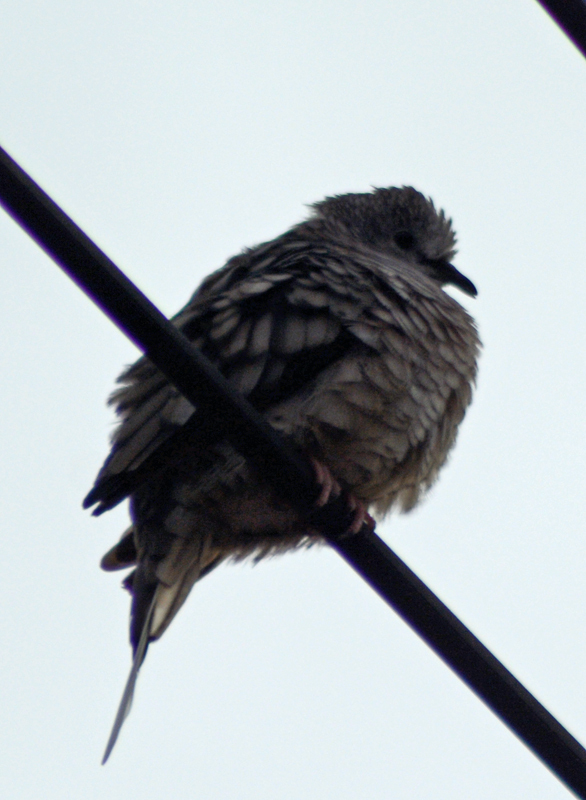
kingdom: Animalia
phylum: Chordata
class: Aves
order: Columbiformes
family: Columbidae
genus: Columbina
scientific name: Columbina inca
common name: Inca dove
